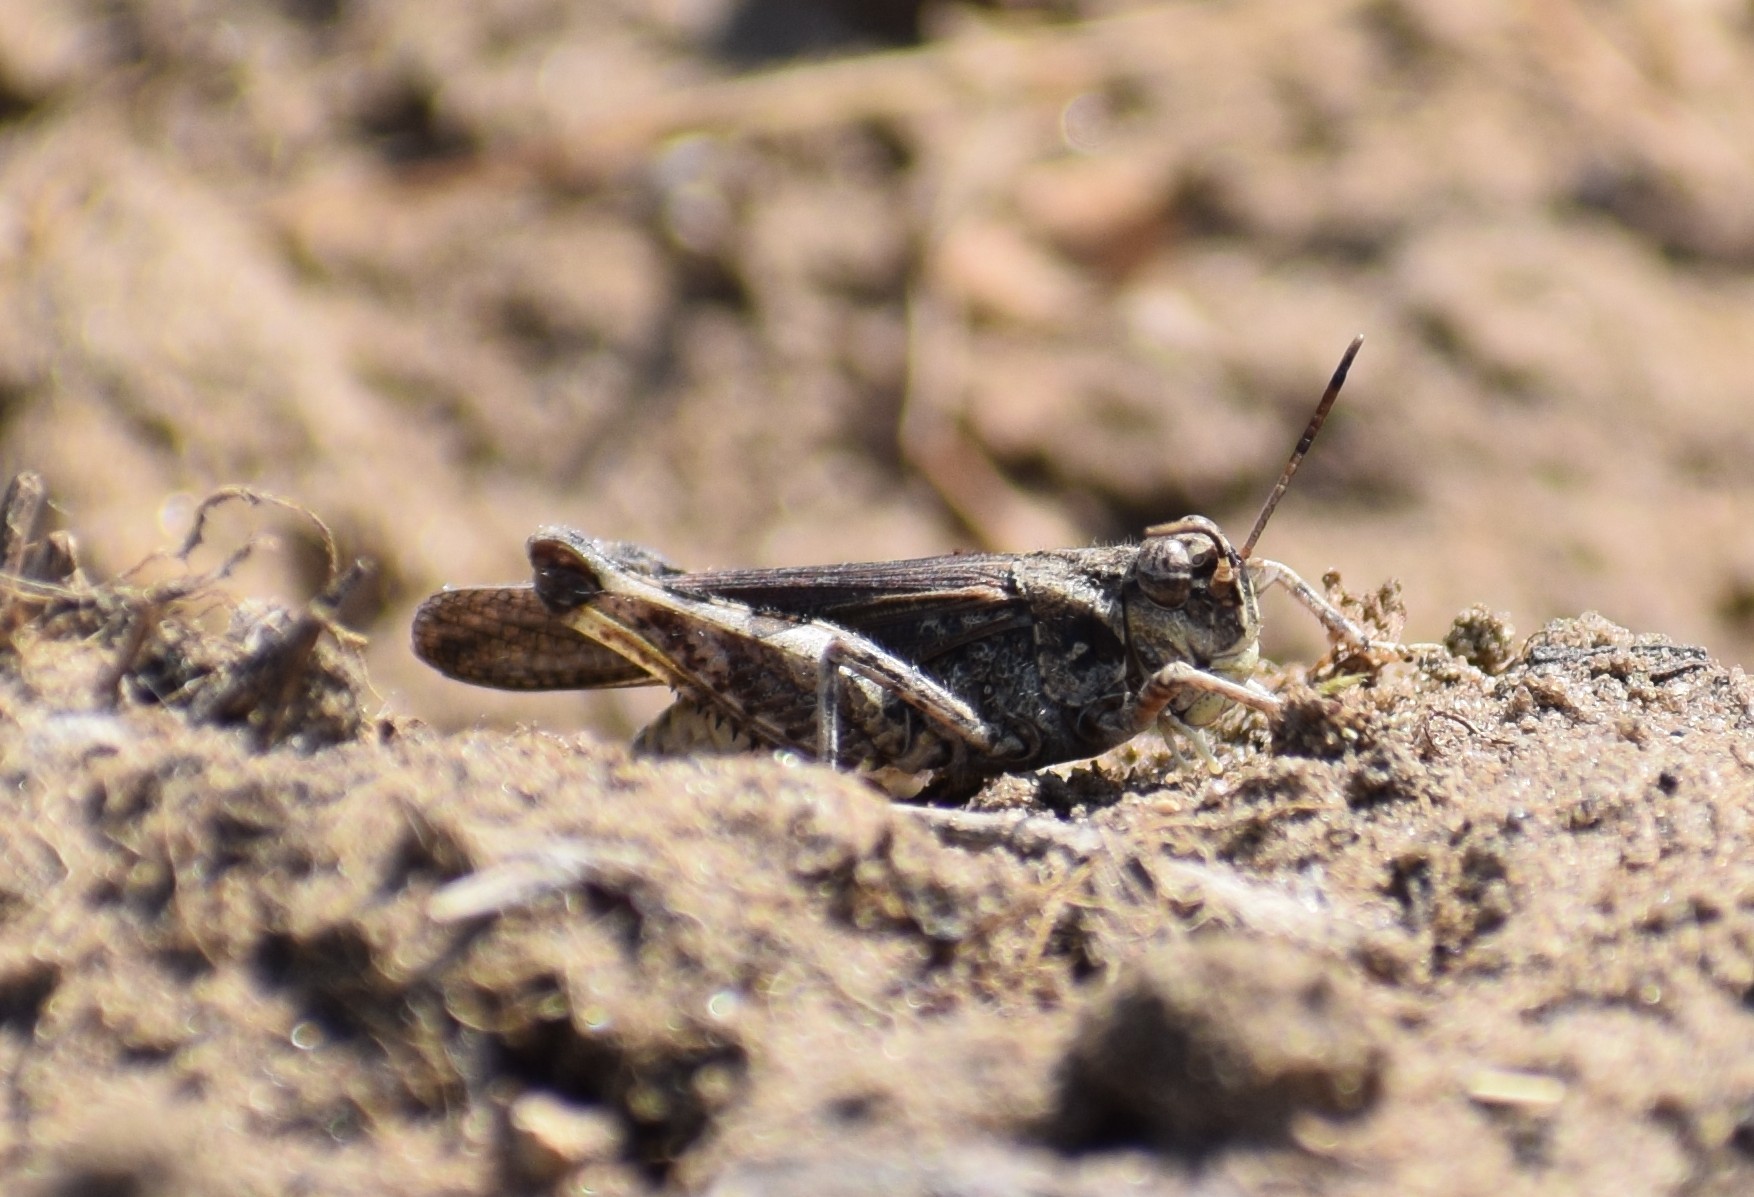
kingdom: Animalia
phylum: Arthropoda
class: Insecta
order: Orthoptera
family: Acrididae
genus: Acrotylus
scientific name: Acrotylus
